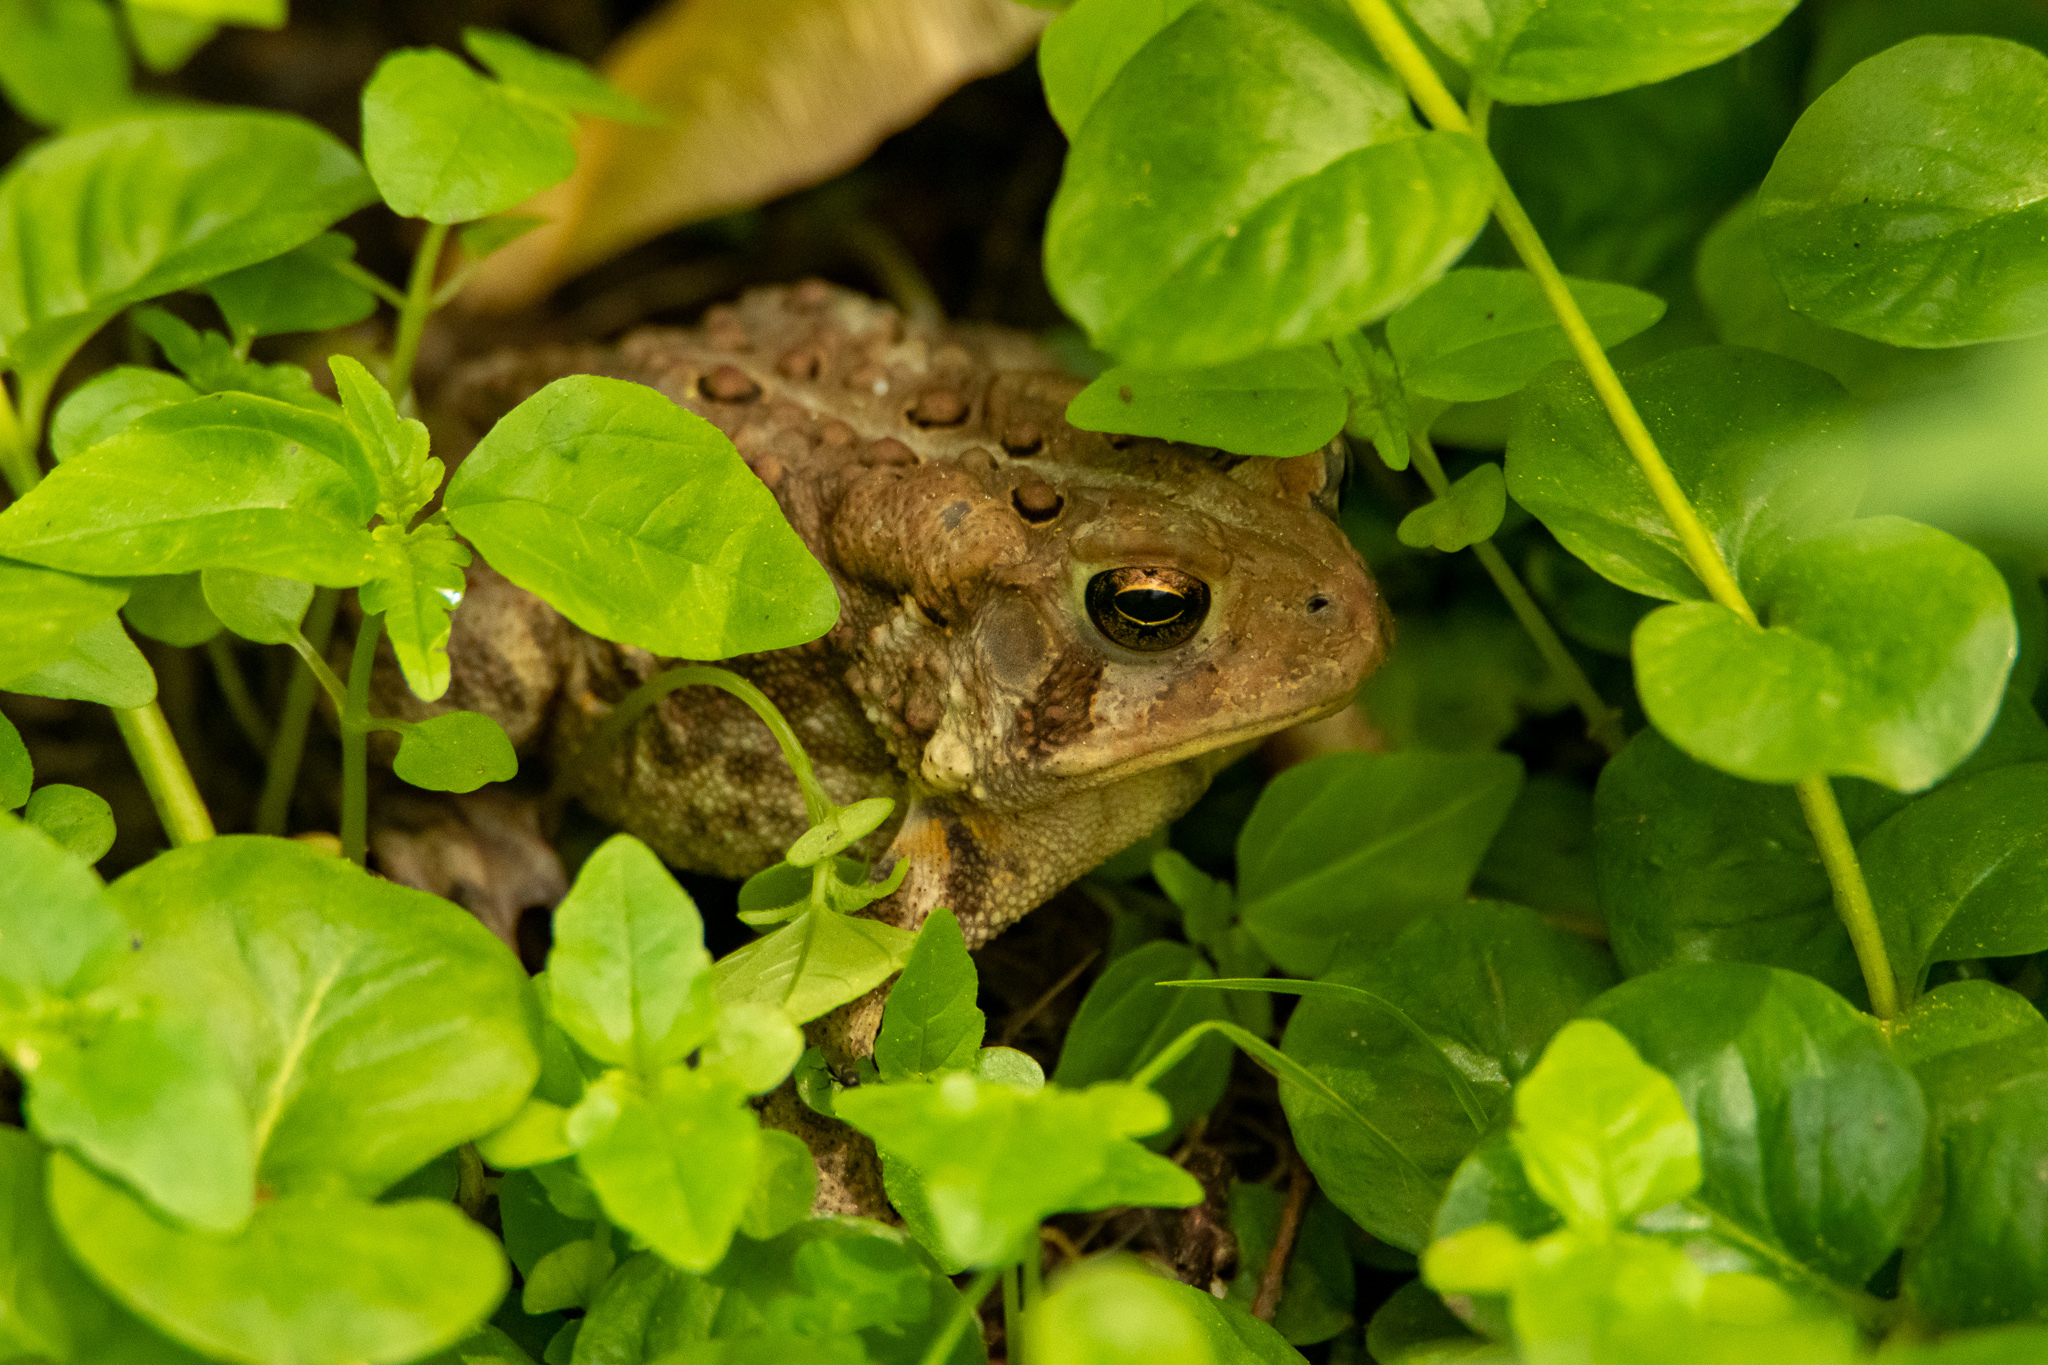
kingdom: Animalia
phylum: Chordata
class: Amphibia
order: Anura
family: Bufonidae
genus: Anaxyrus
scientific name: Anaxyrus americanus
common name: American toad
